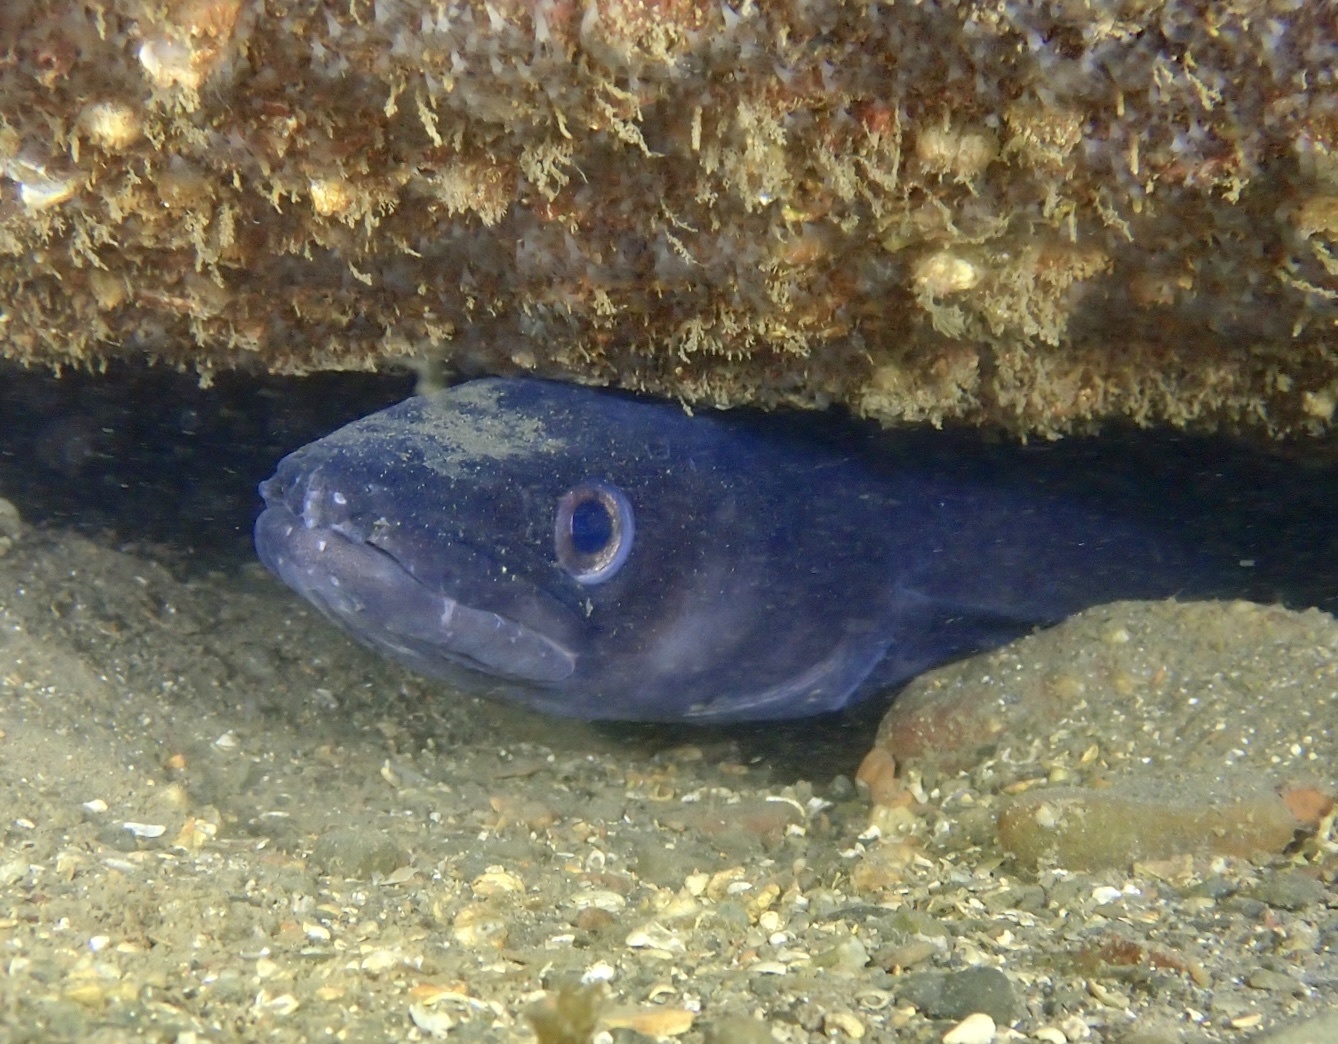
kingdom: Animalia
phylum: Chordata
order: Anguilliformes
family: Congridae
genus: Conger
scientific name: Conger conger
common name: Conger eel
